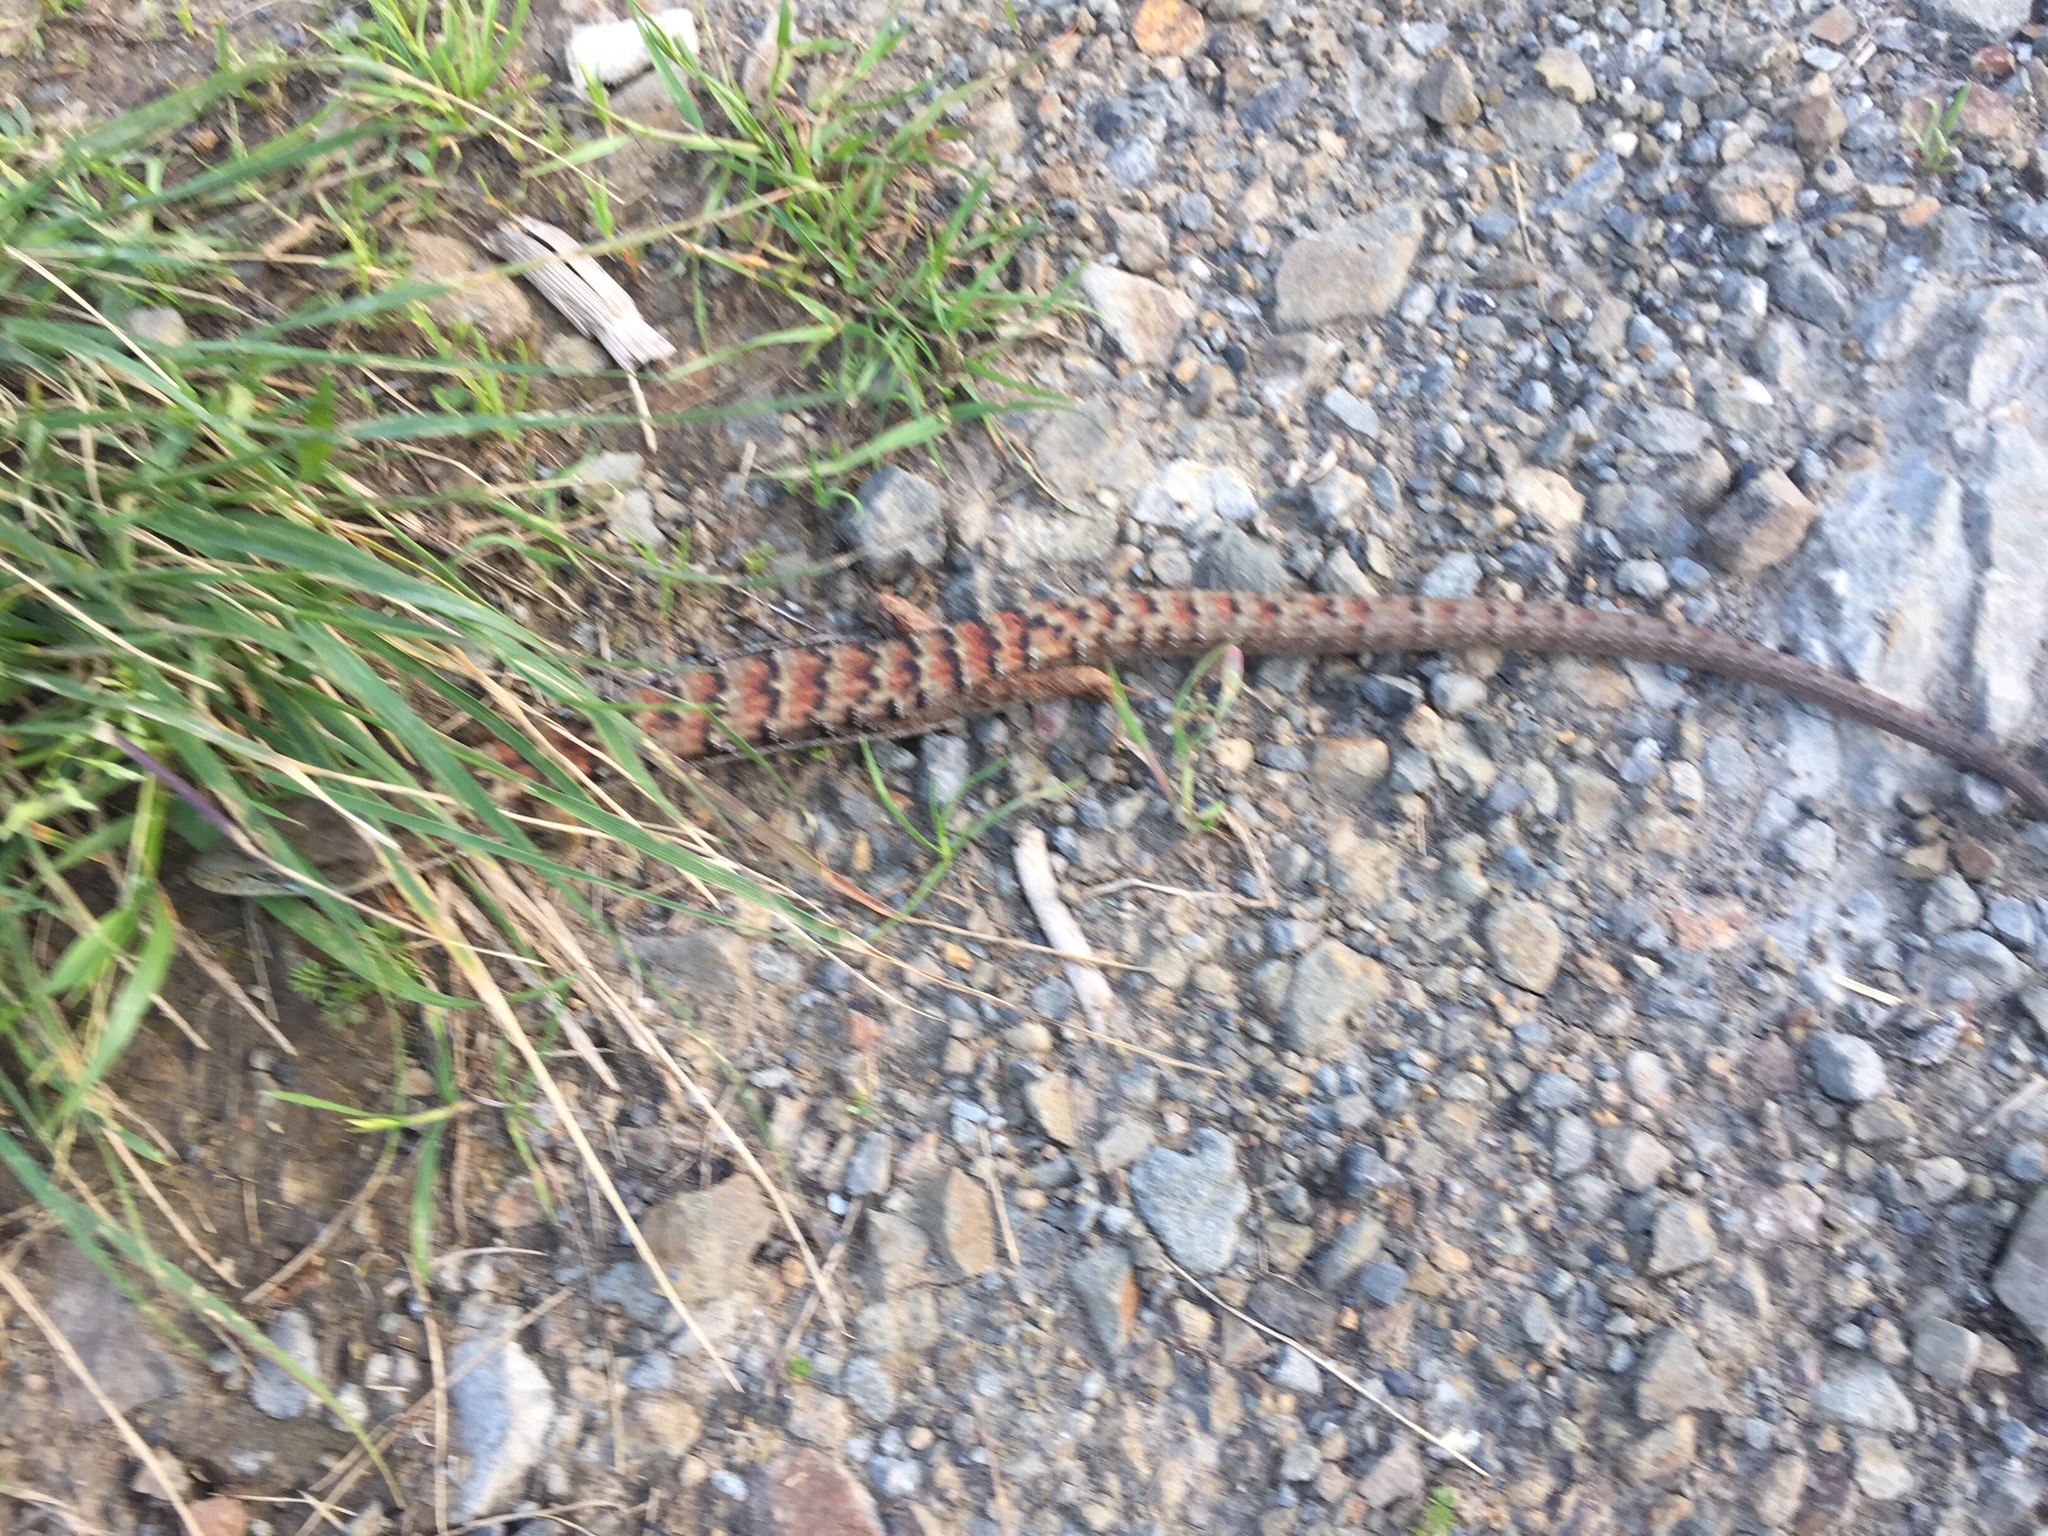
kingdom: Animalia
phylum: Chordata
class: Squamata
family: Anguidae
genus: Elgaria
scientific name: Elgaria multicarinata
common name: Southern alligator lizard
